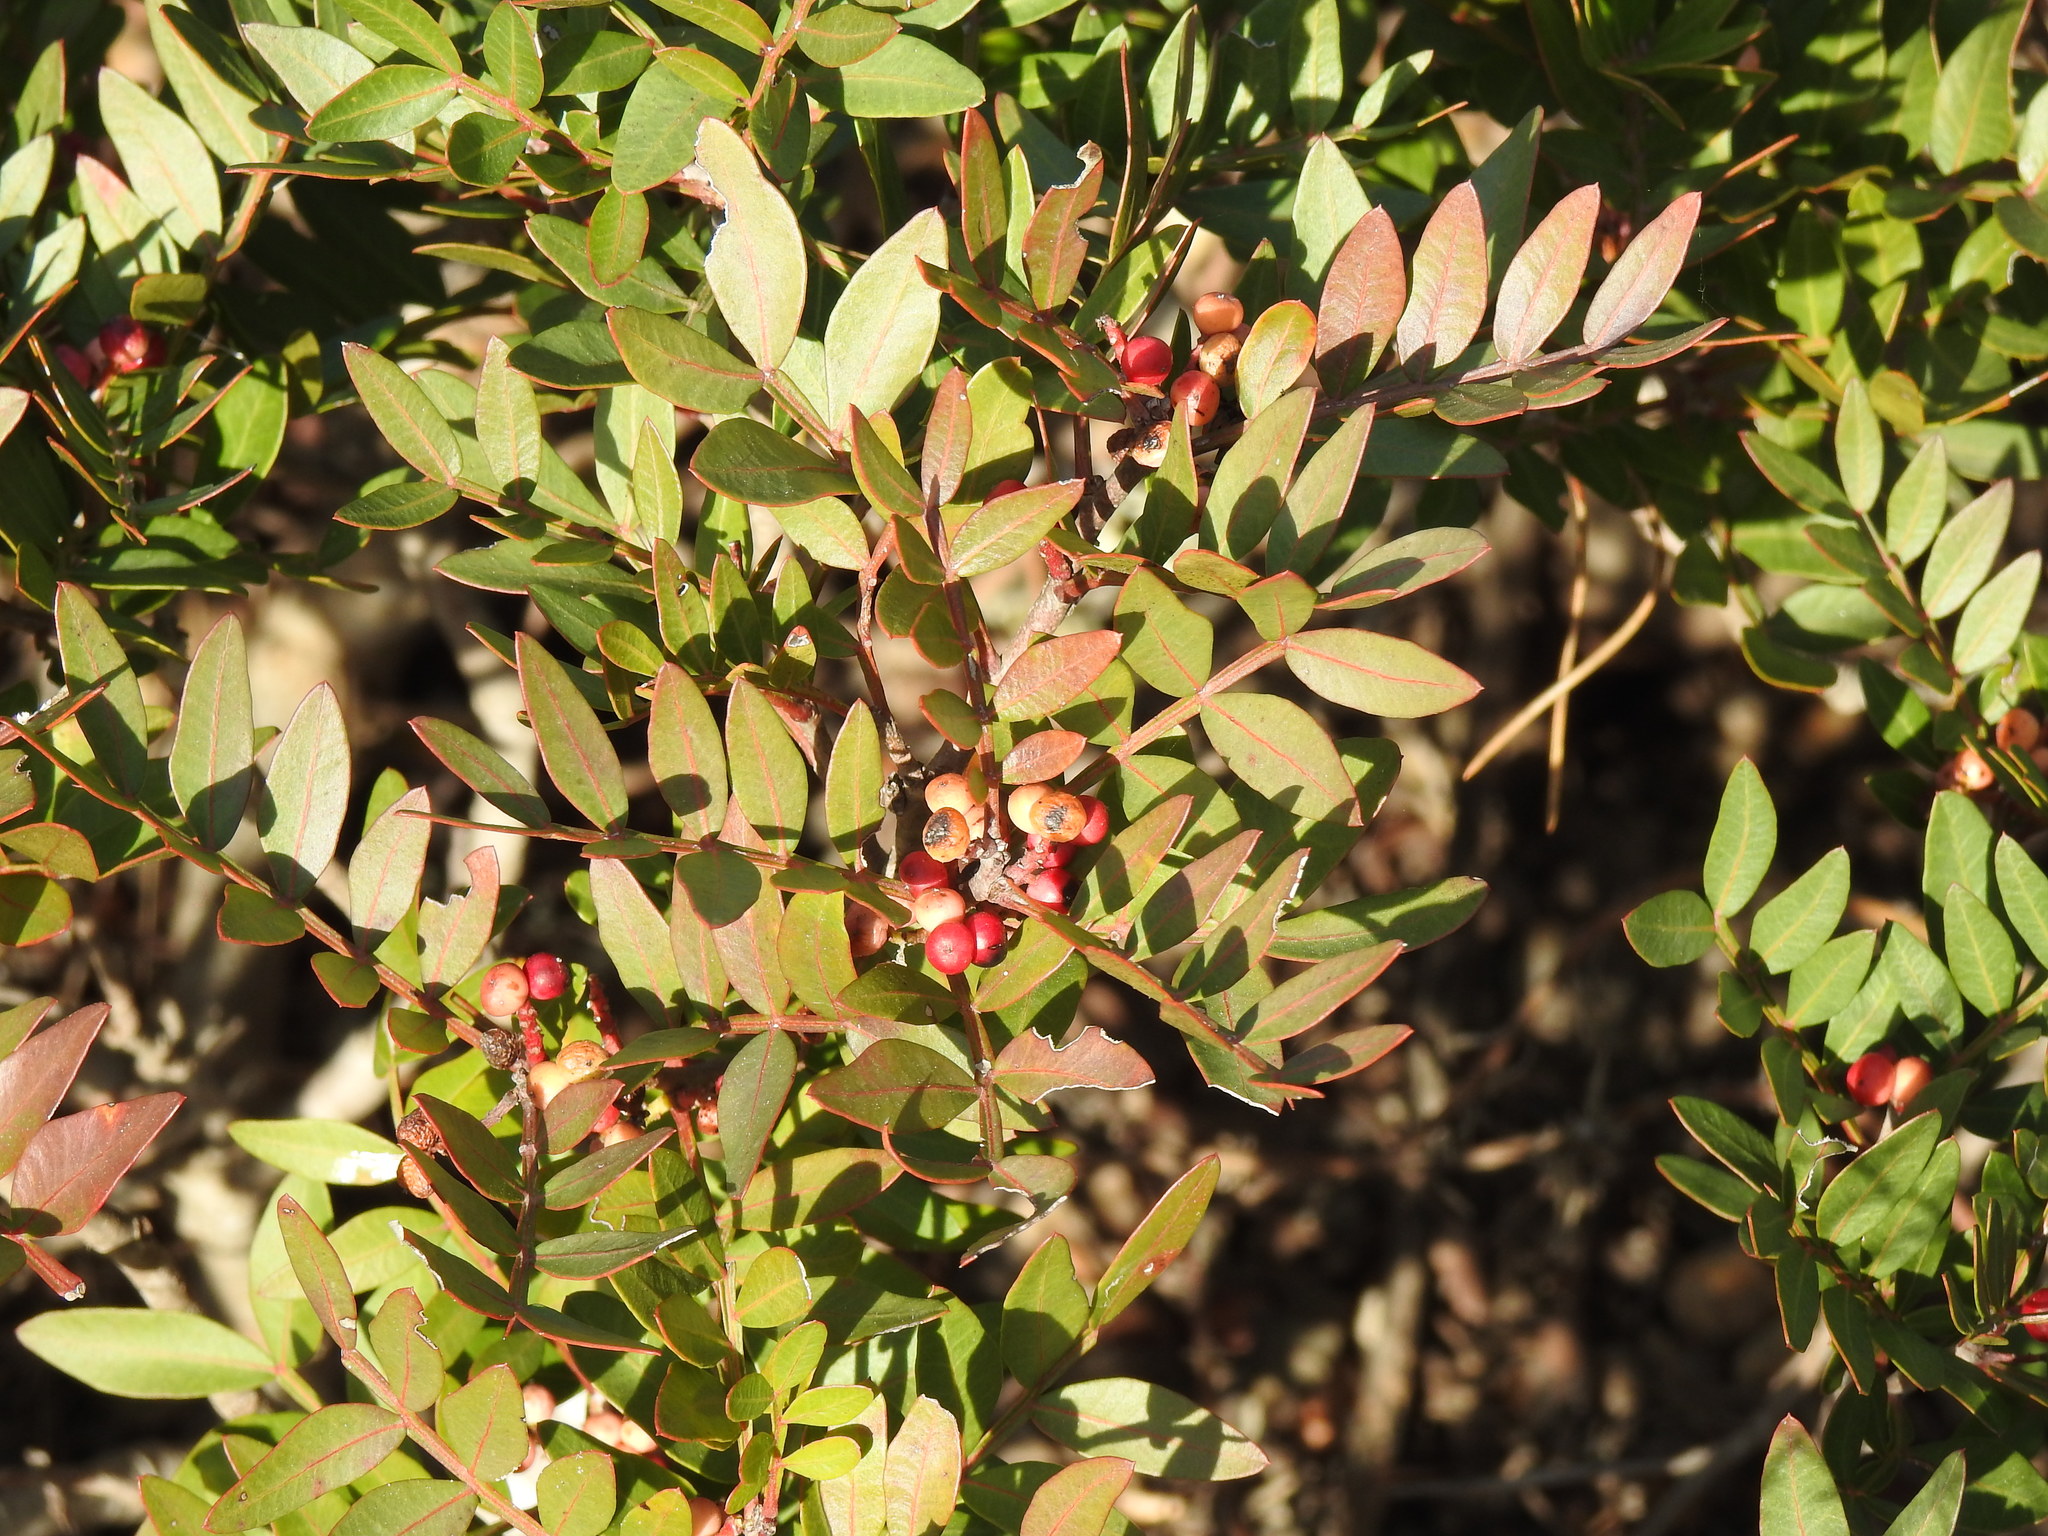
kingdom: Plantae
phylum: Tracheophyta
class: Magnoliopsida
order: Sapindales
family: Anacardiaceae
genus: Pistacia
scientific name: Pistacia lentiscus
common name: Lentisk
